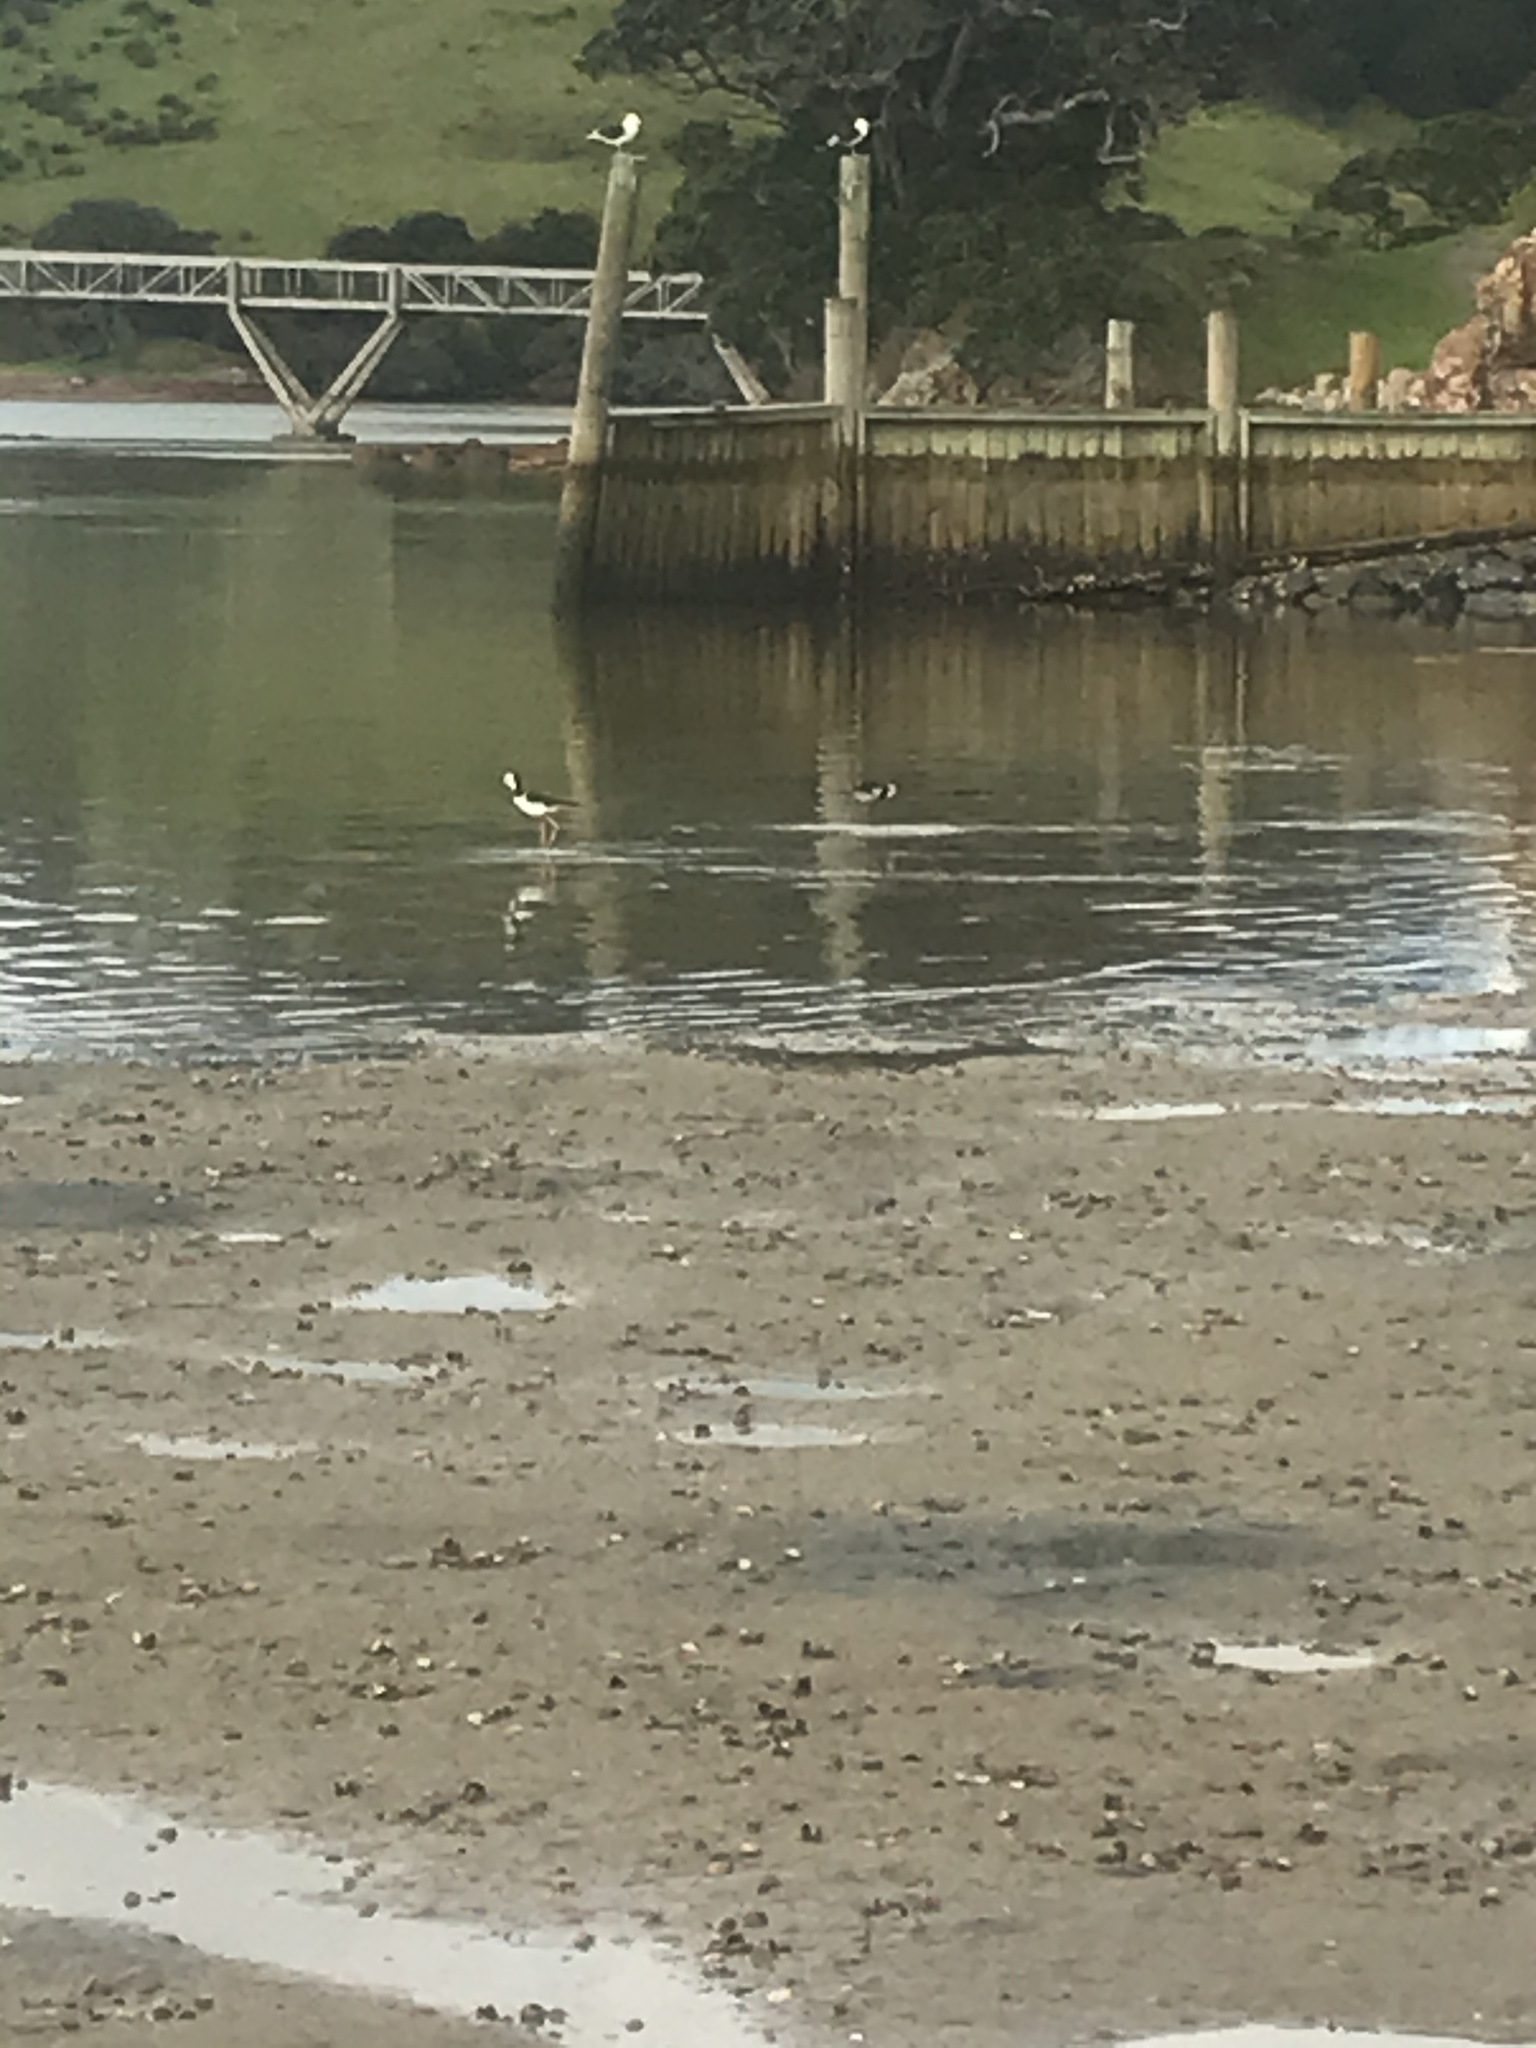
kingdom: Animalia
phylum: Chordata
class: Aves
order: Charadriiformes
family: Recurvirostridae
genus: Himantopus
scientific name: Himantopus leucocephalus
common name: White-headed stilt
